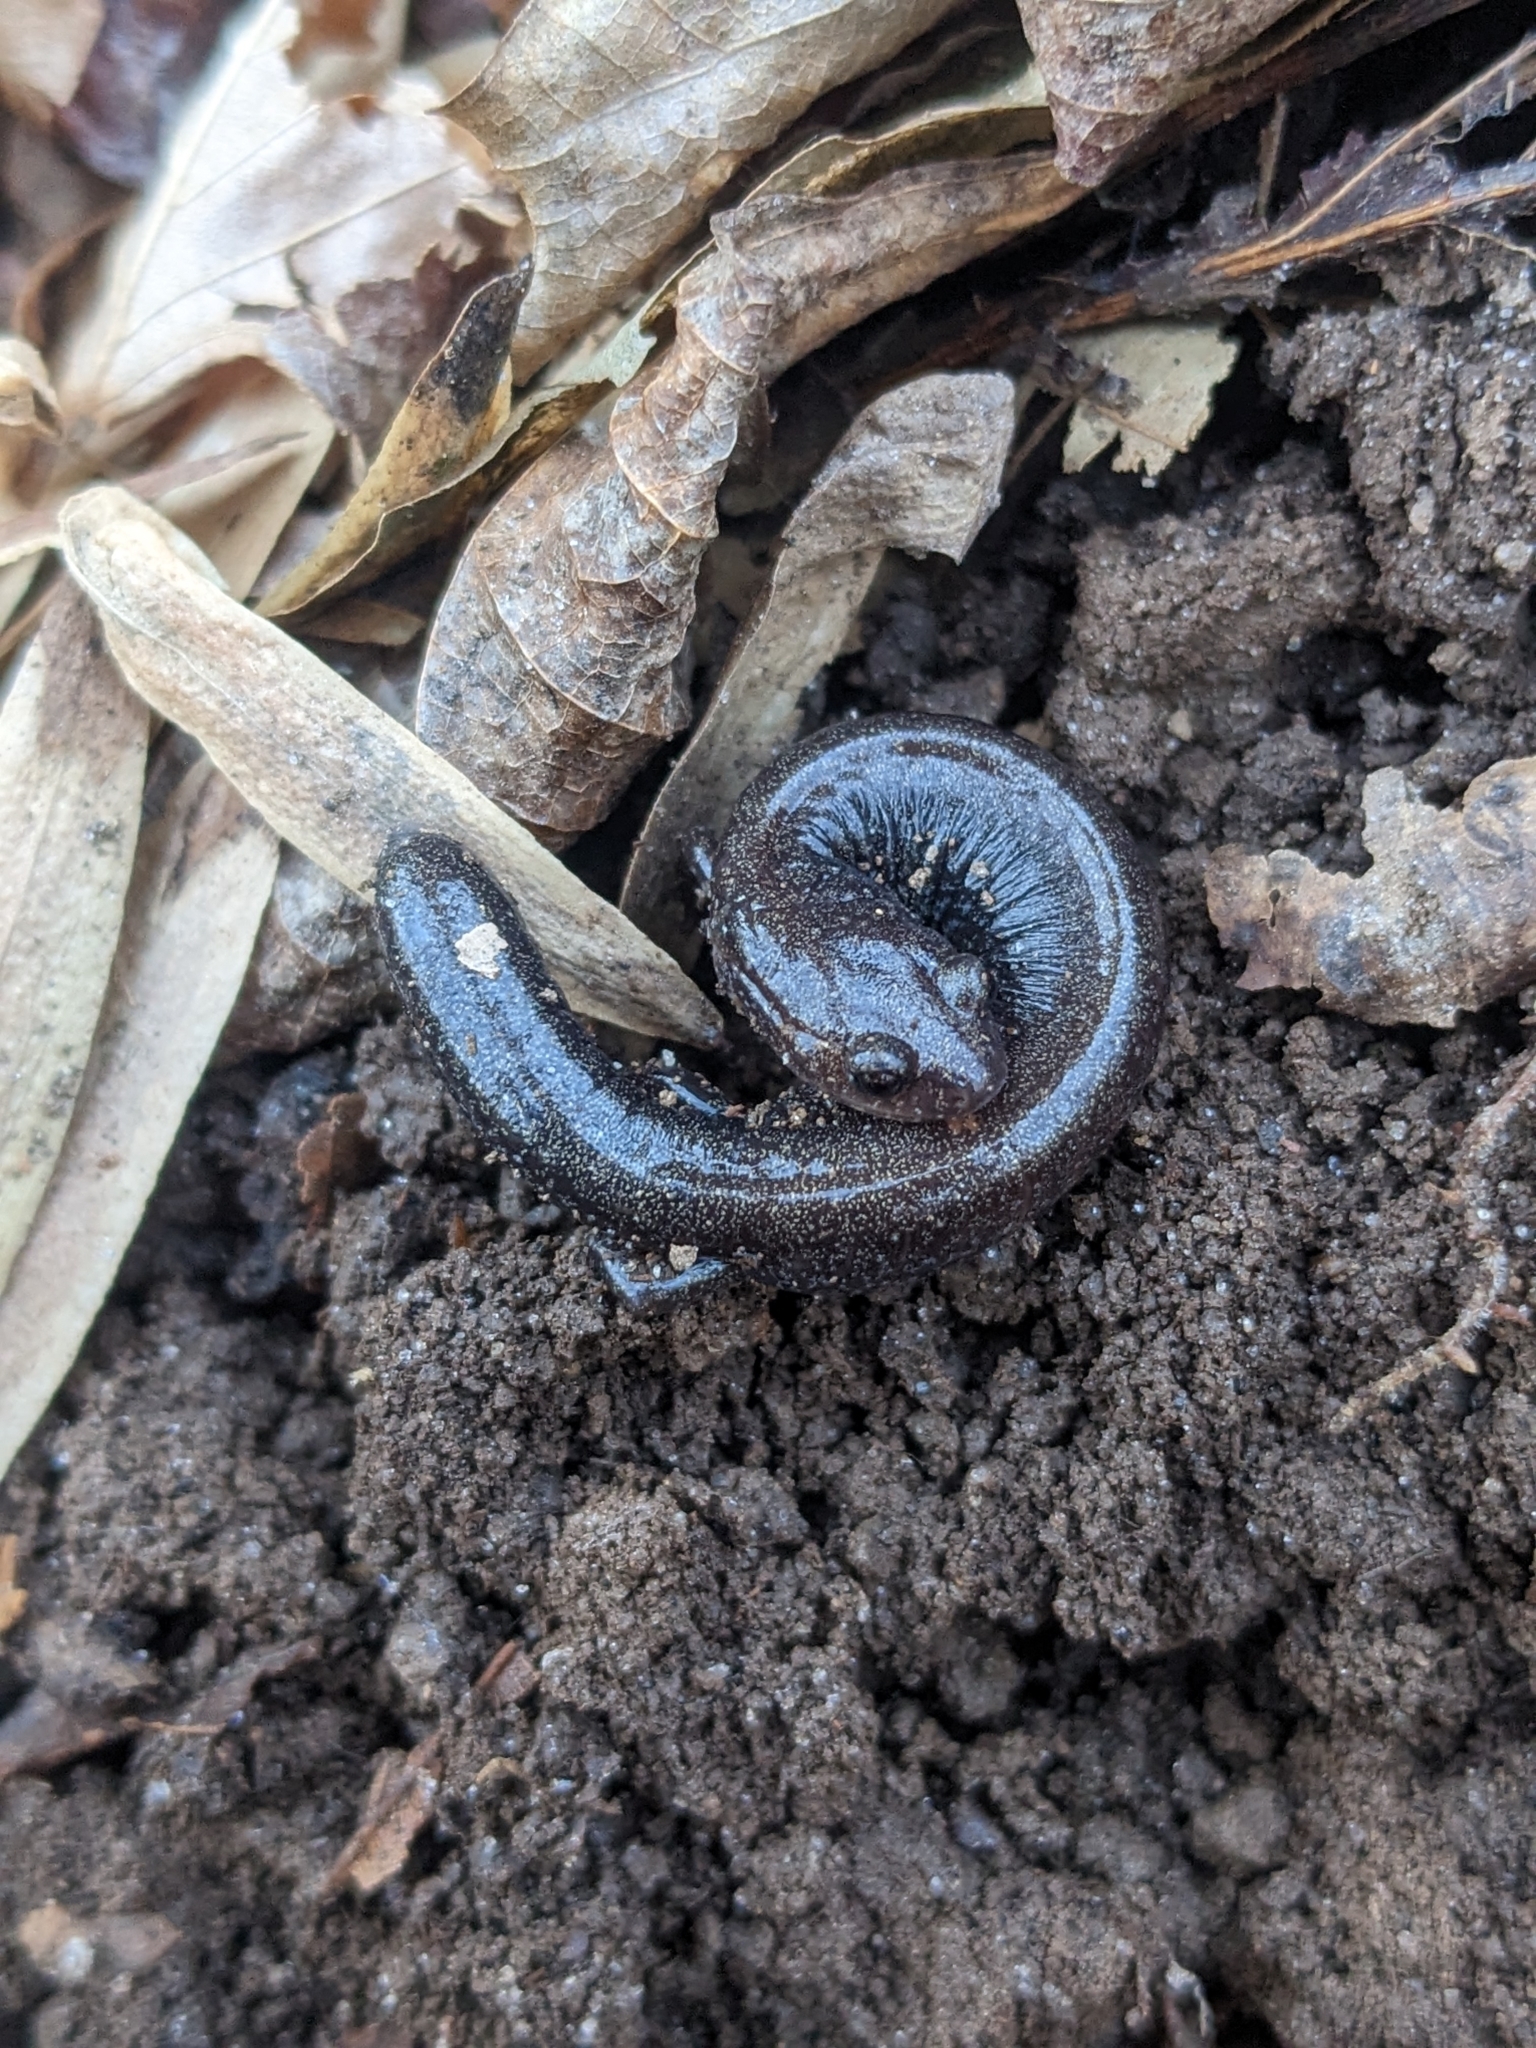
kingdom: Animalia
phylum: Chordata
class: Amphibia
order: Caudata
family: Plethodontidae
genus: Plethodon
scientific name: Plethodon cinereus
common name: Redback salamander
